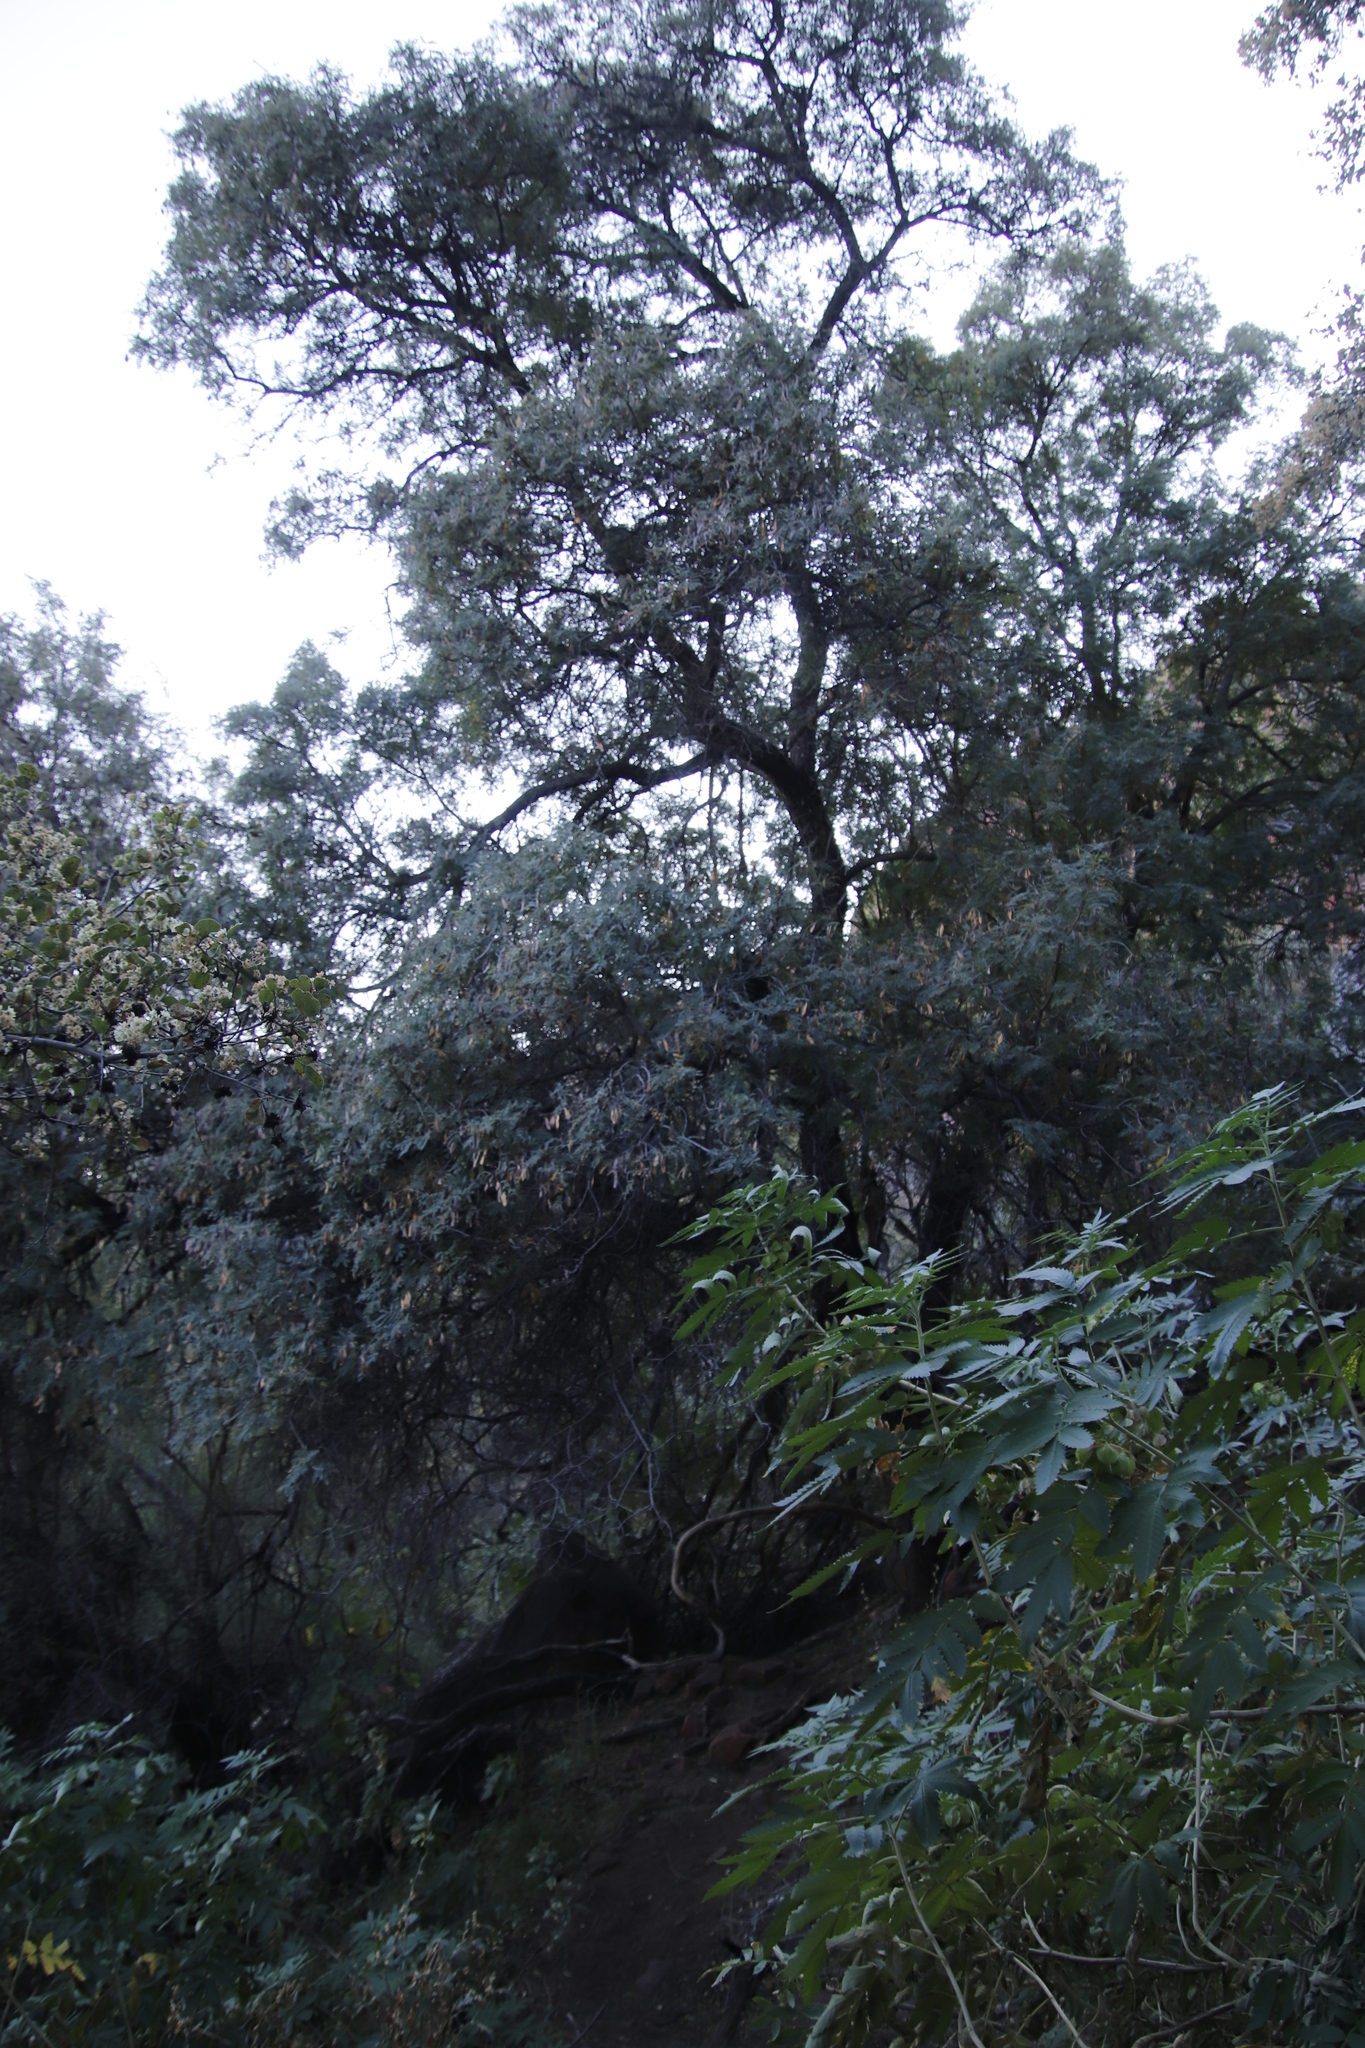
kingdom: Plantae
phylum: Tracheophyta
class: Magnoliopsida
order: Fabales
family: Fabaceae
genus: Peltophorum
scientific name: Peltophorum africanum
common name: African black wattle
